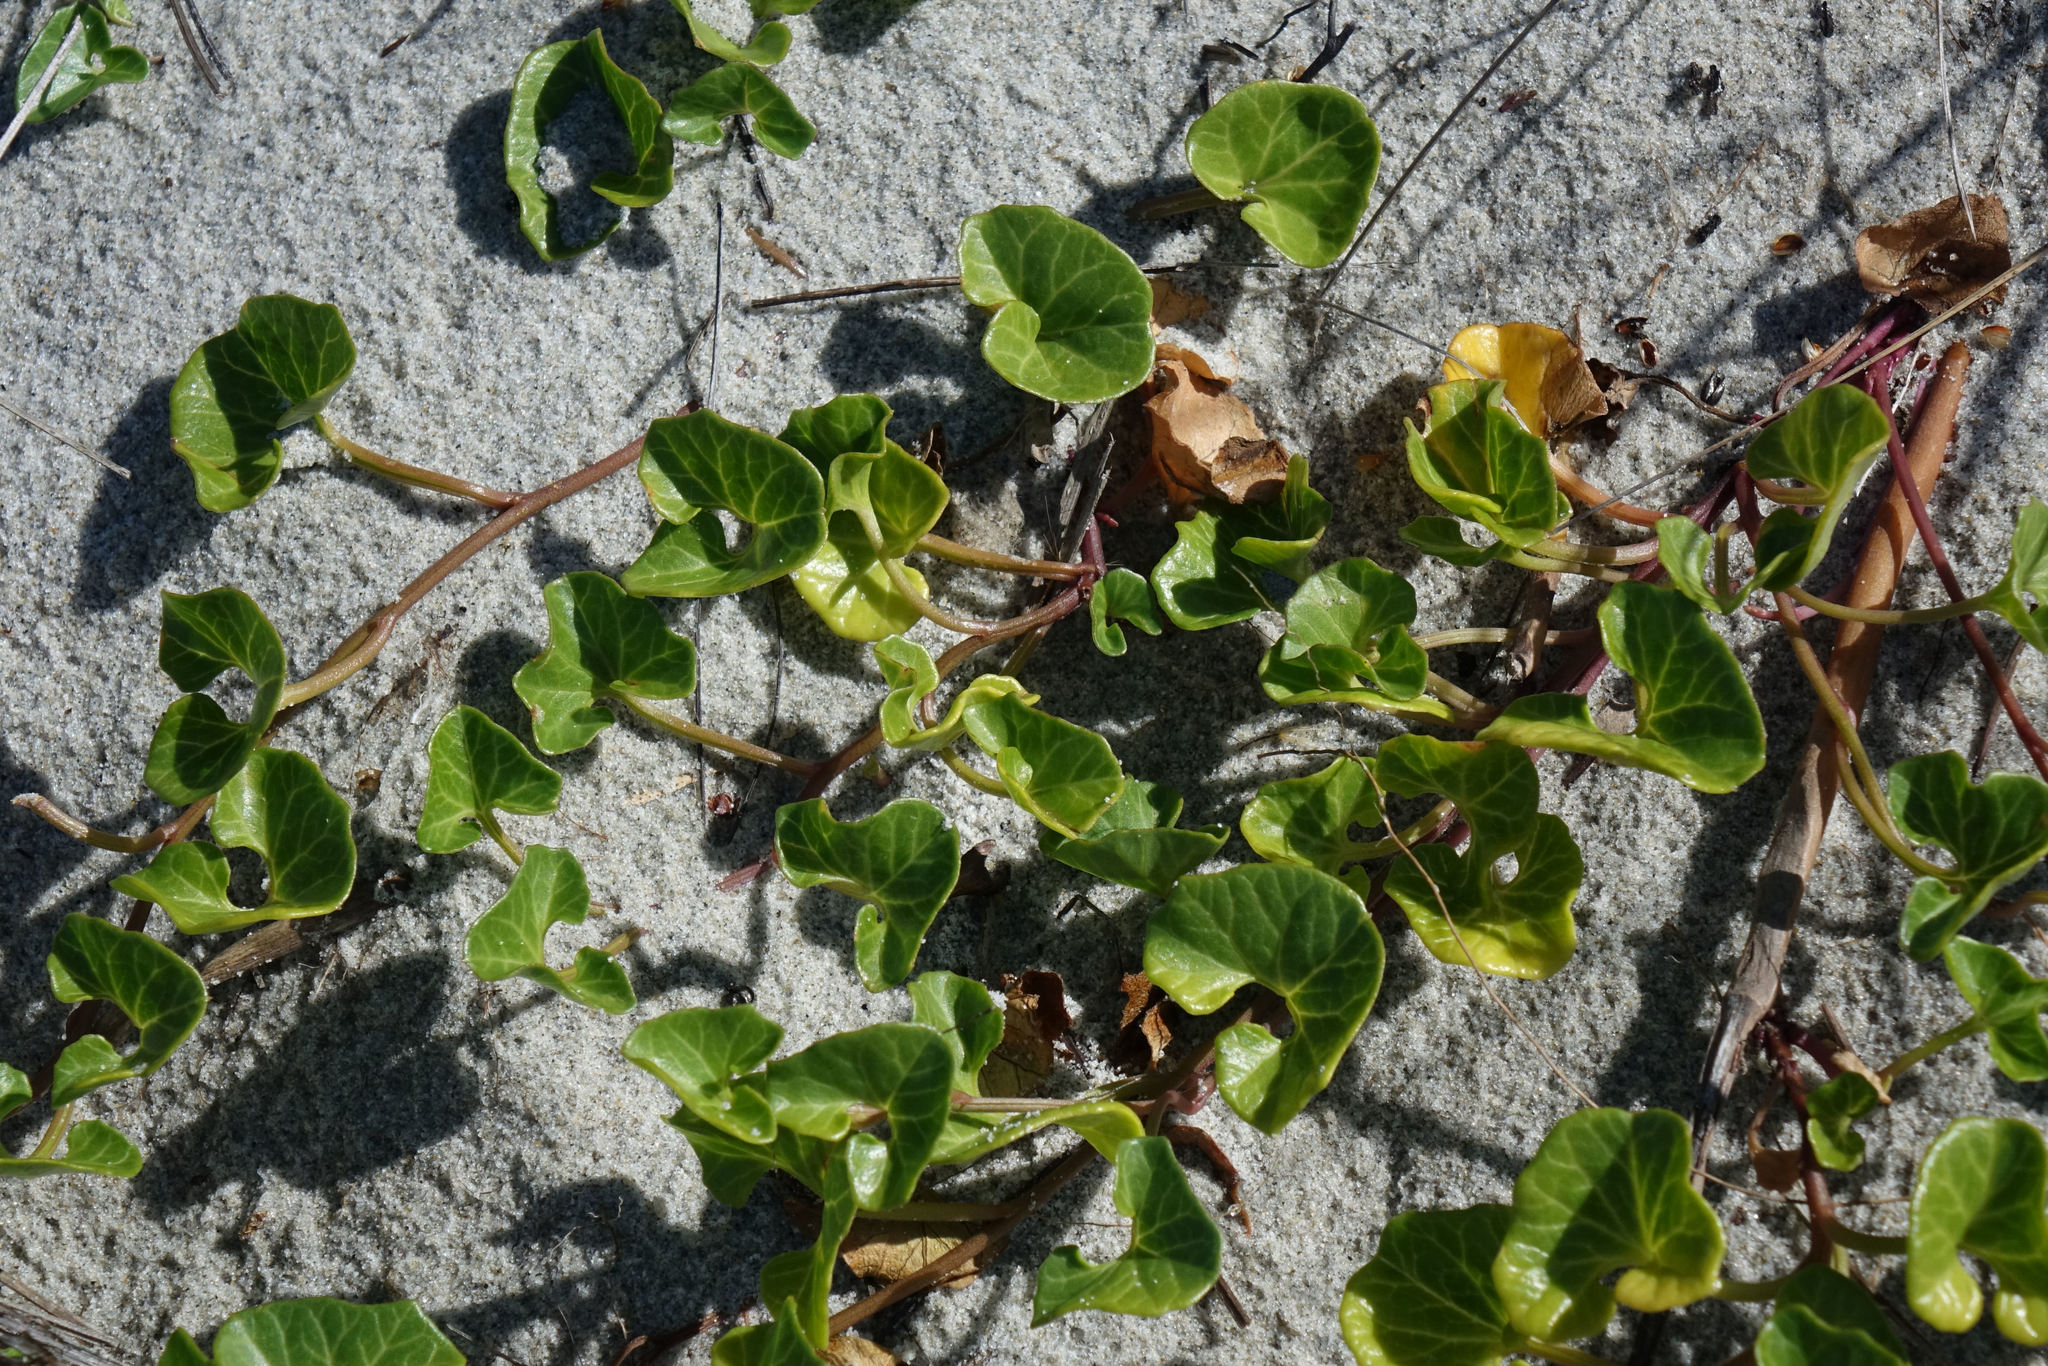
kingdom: Plantae
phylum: Tracheophyta
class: Magnoliopsida
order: Solanales
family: Convolvulaceae
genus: Calystegia
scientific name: Calystegia soldanella
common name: Sea bindweed
